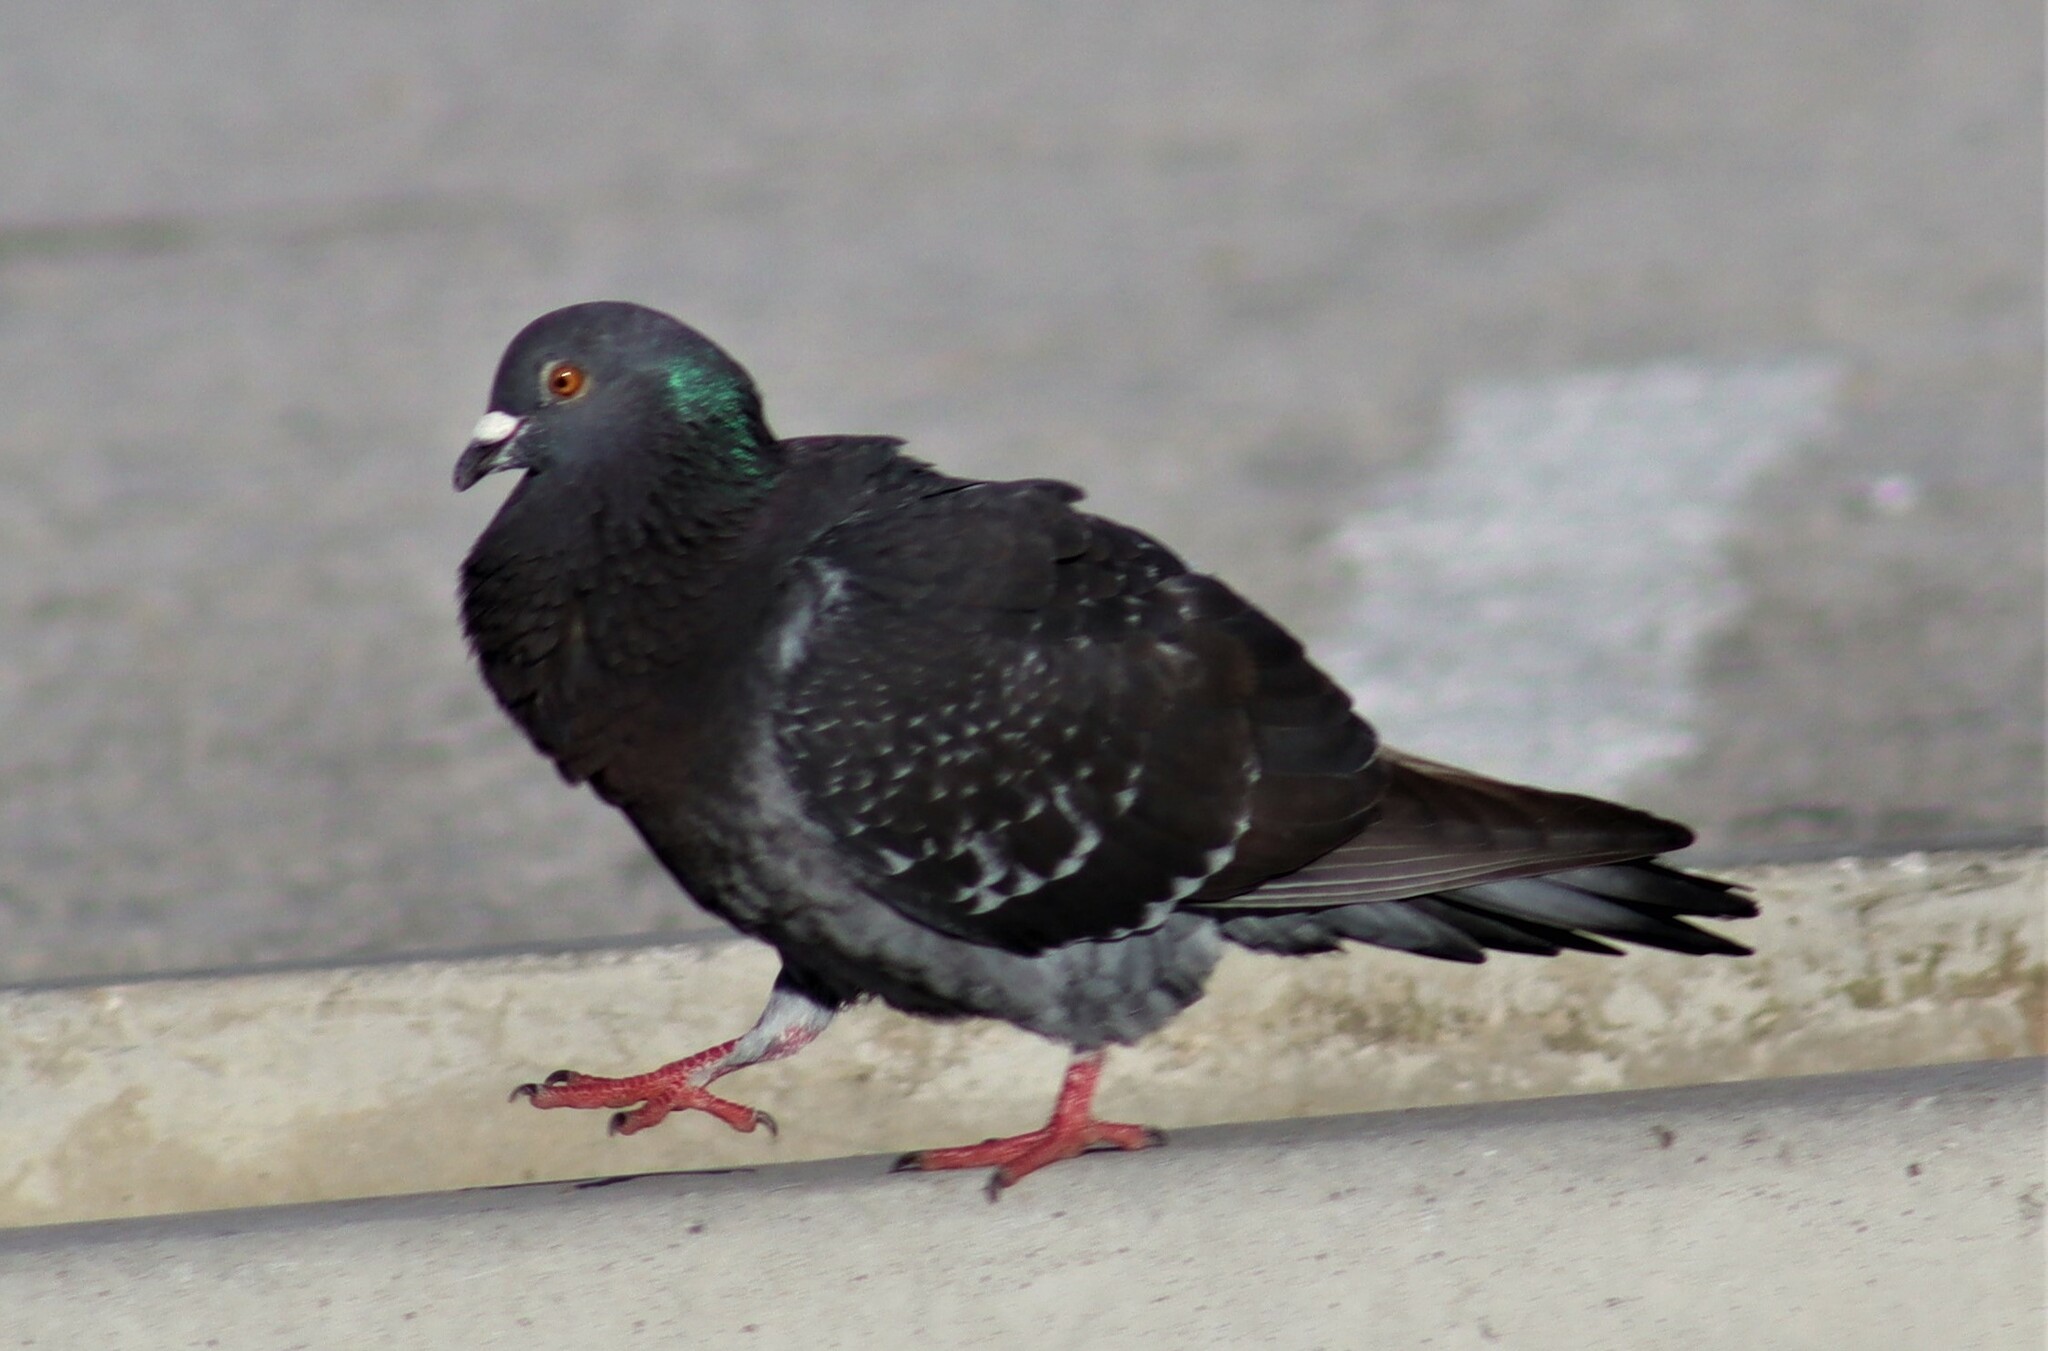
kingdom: Animalia
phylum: Chordata
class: Aves
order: Columbiformes
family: Columbidae
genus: Columba
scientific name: Columba livia
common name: Rock pigeon
